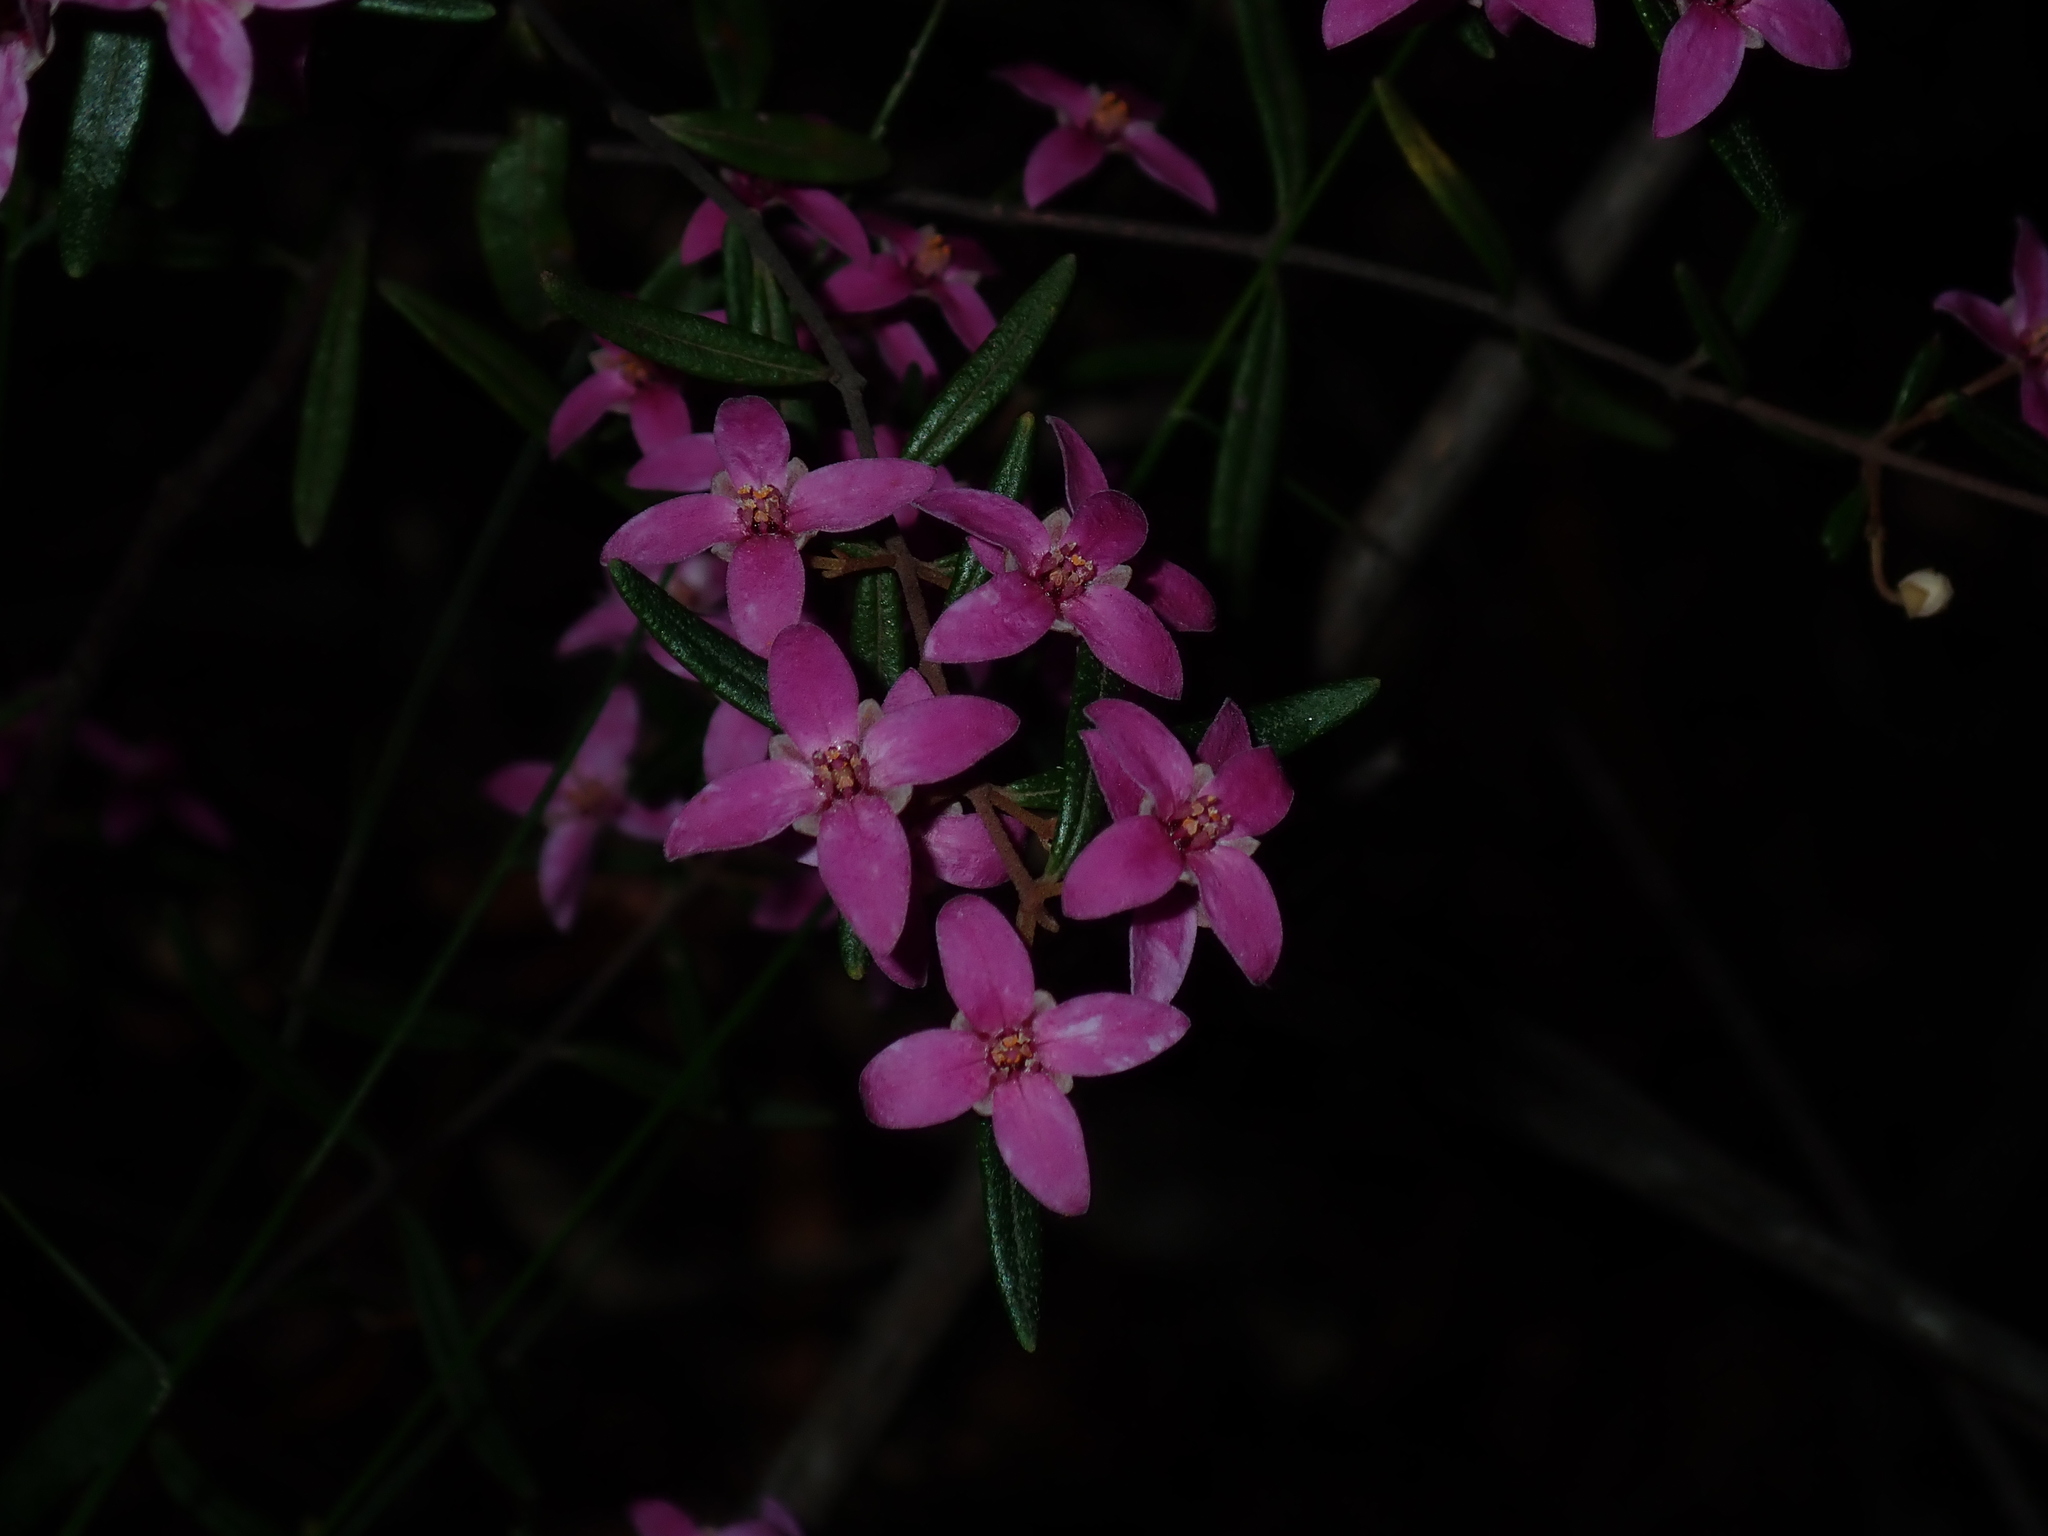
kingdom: Plantae
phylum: Tracheophyta
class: Magnoliopsida
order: Sapindales
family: Rutaceae
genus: Boronia
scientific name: Boronia ledifolia
